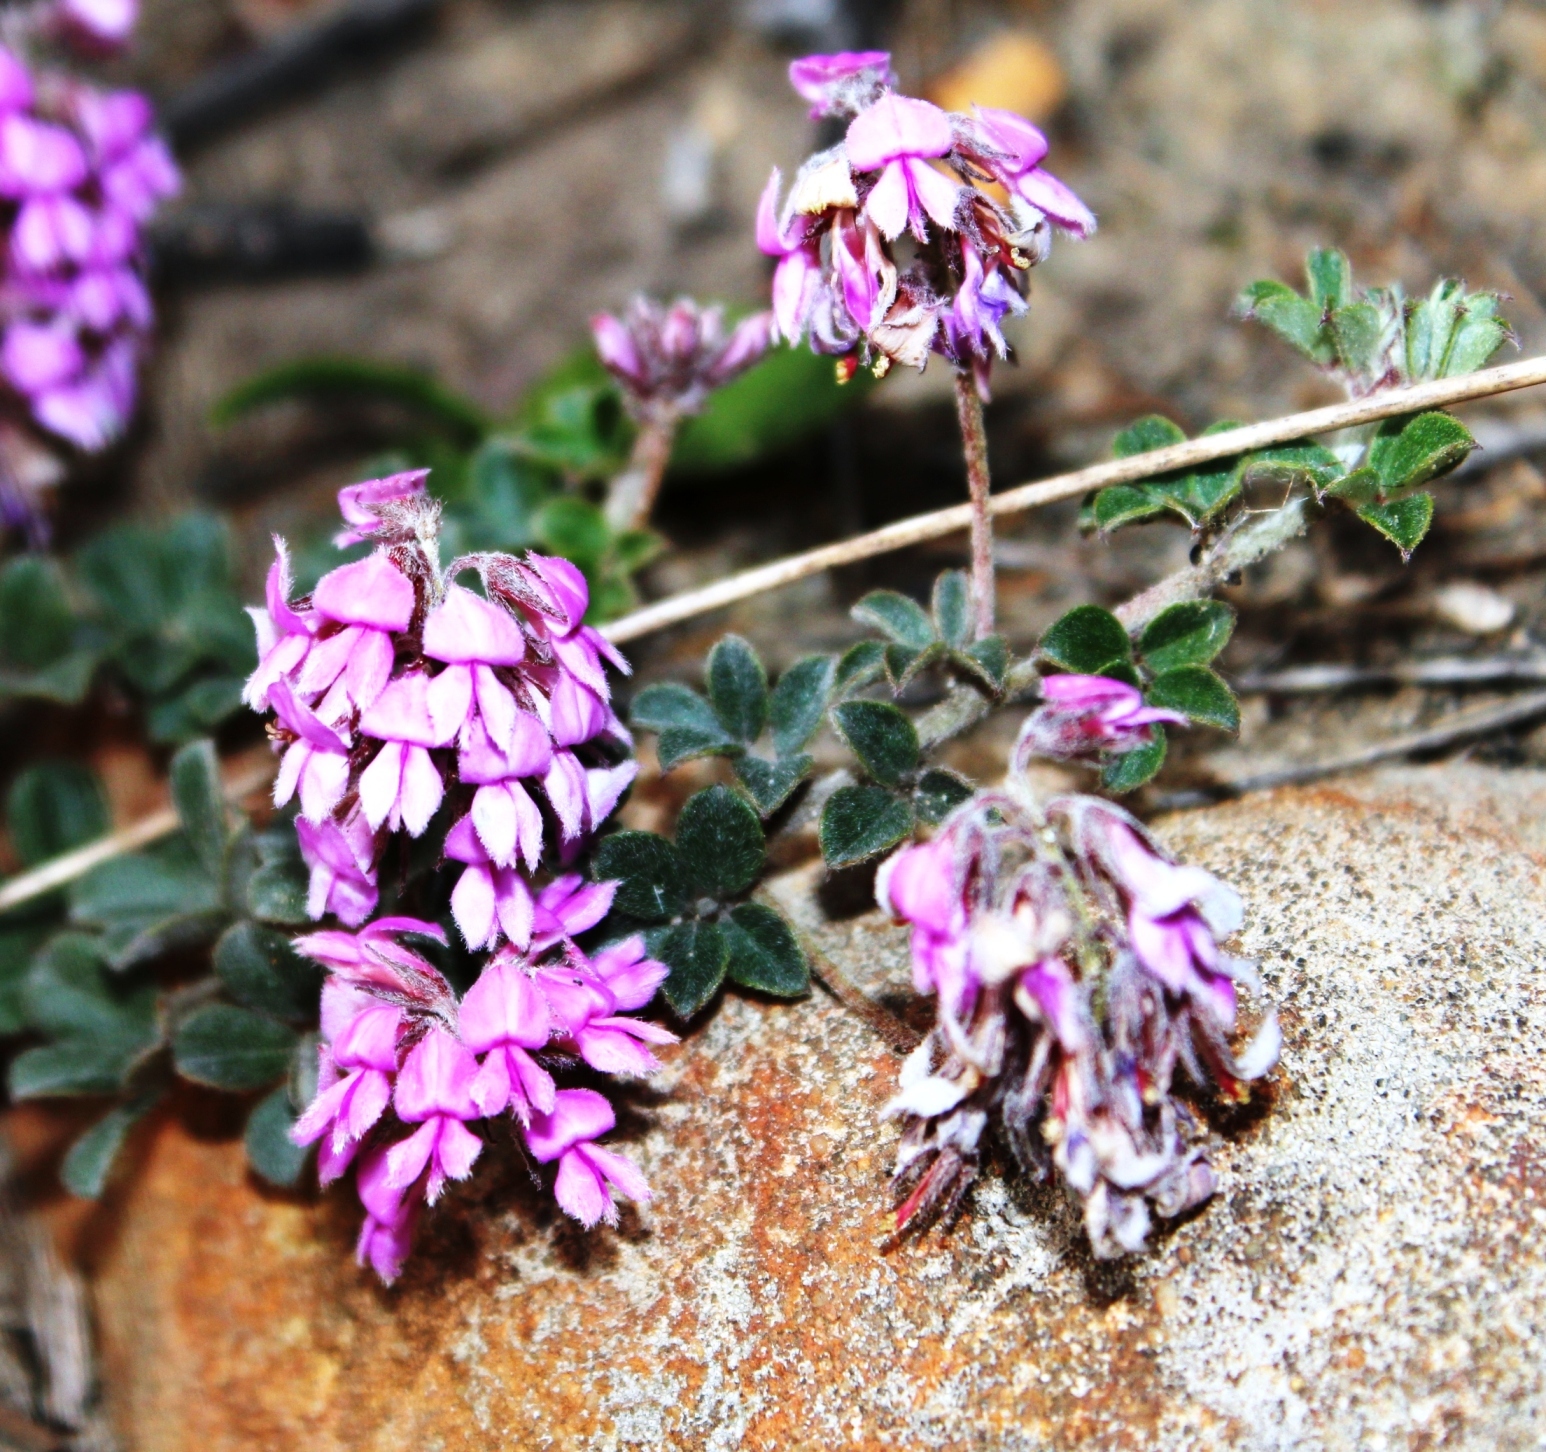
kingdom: Plantae
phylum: Tracheophyta
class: Magnoliopsida
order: Fabales
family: Fabaceae
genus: Indigofera
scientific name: Indigofera mauritanica
